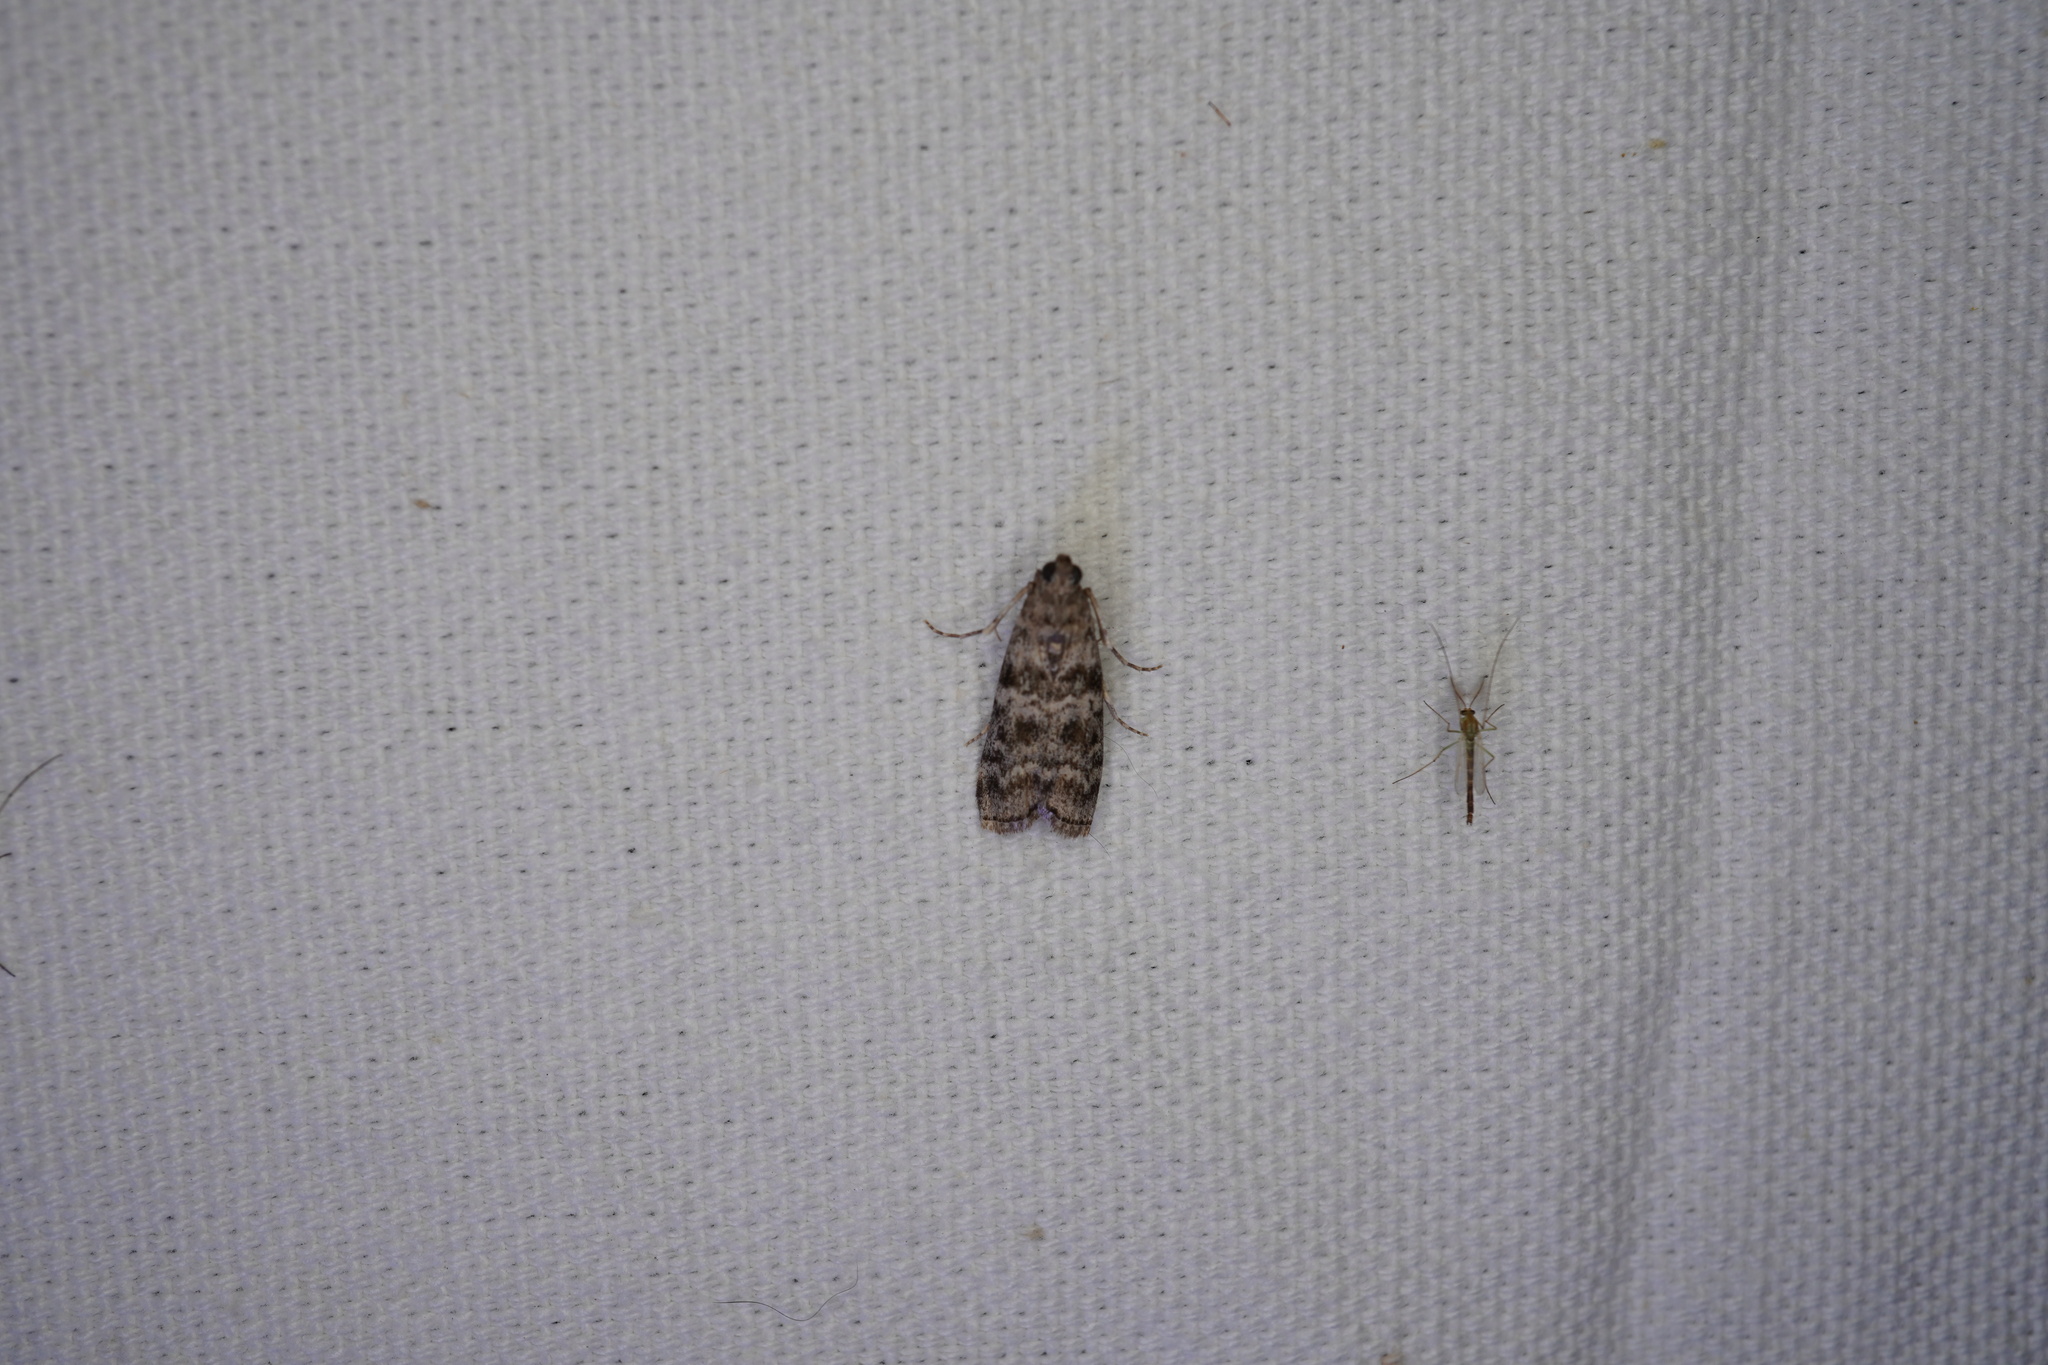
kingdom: Animalia
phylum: Arthropoda
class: Insecta
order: Lepidoptera
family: Pyralidae
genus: Dioryctria
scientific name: Dioryctria amatella
